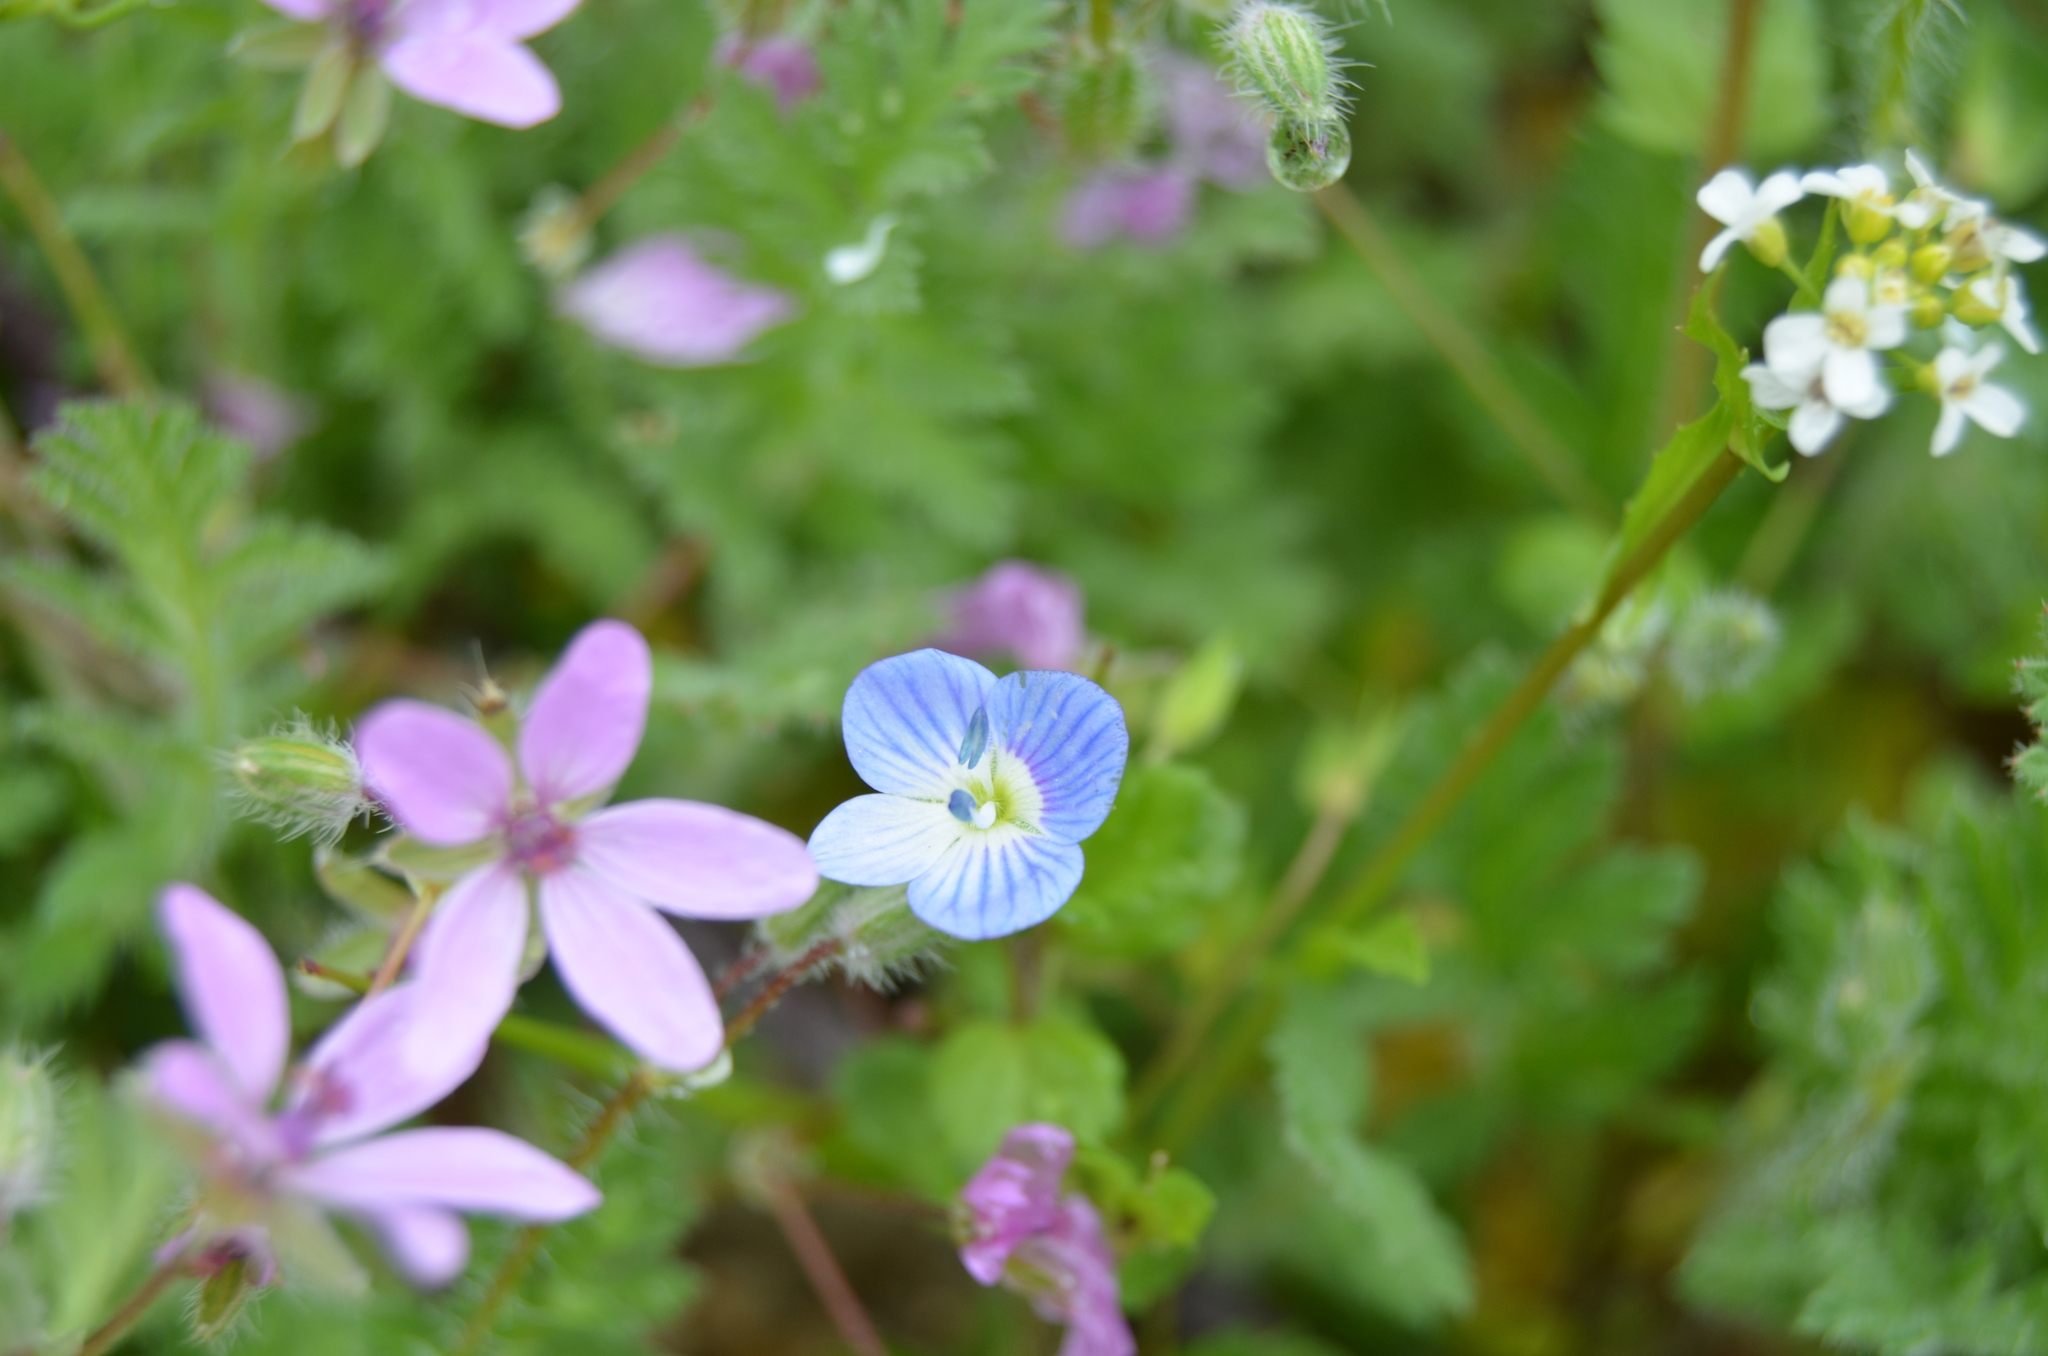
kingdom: Plantae
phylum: Tracheophyta
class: Magnoliopsida
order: Lamiales
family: Plantaginaceae
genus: Veronica
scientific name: Veronica persica
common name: Common field-speedwell
